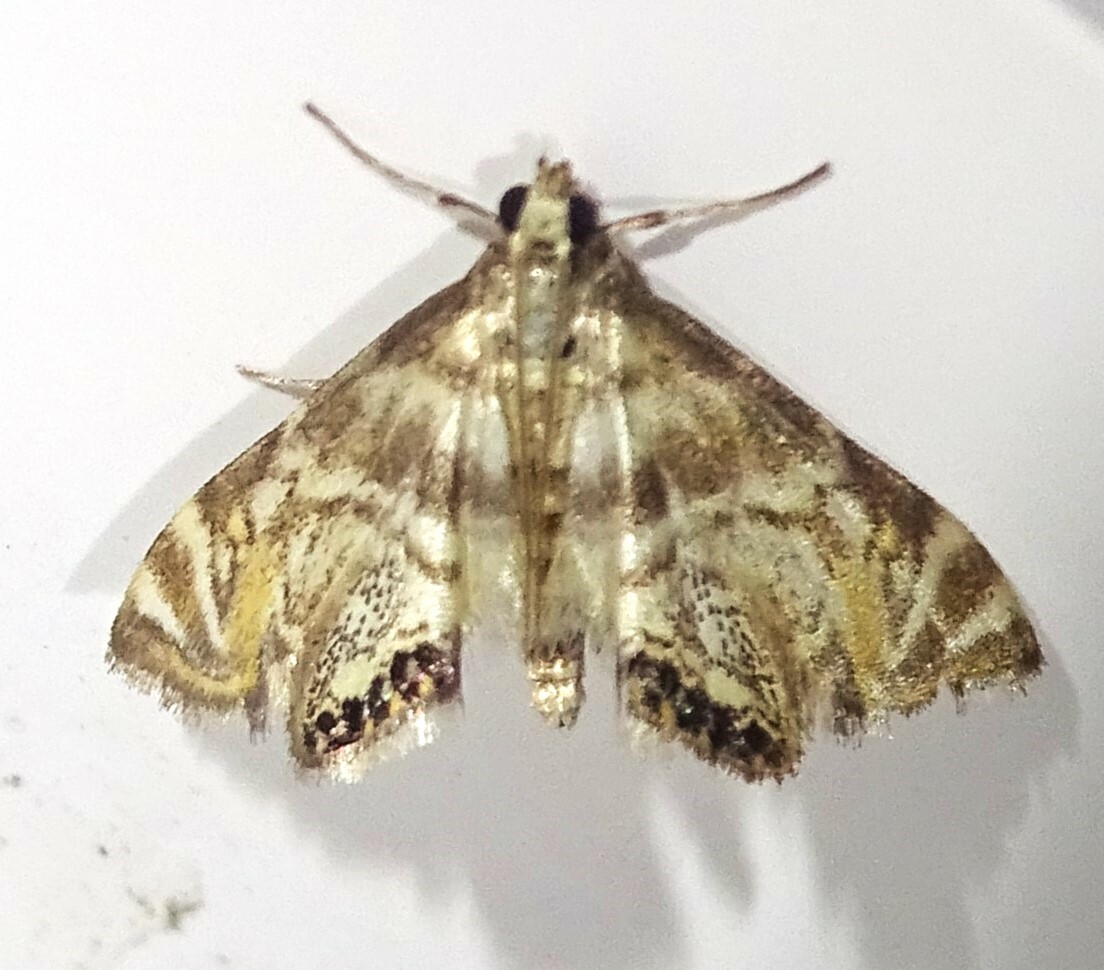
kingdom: Animalia
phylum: Arthropoda
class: Insecta
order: Lepidoptera
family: Crambidae
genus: Petrophila
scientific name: Petrophila canadensis
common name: Canadian petrophila
